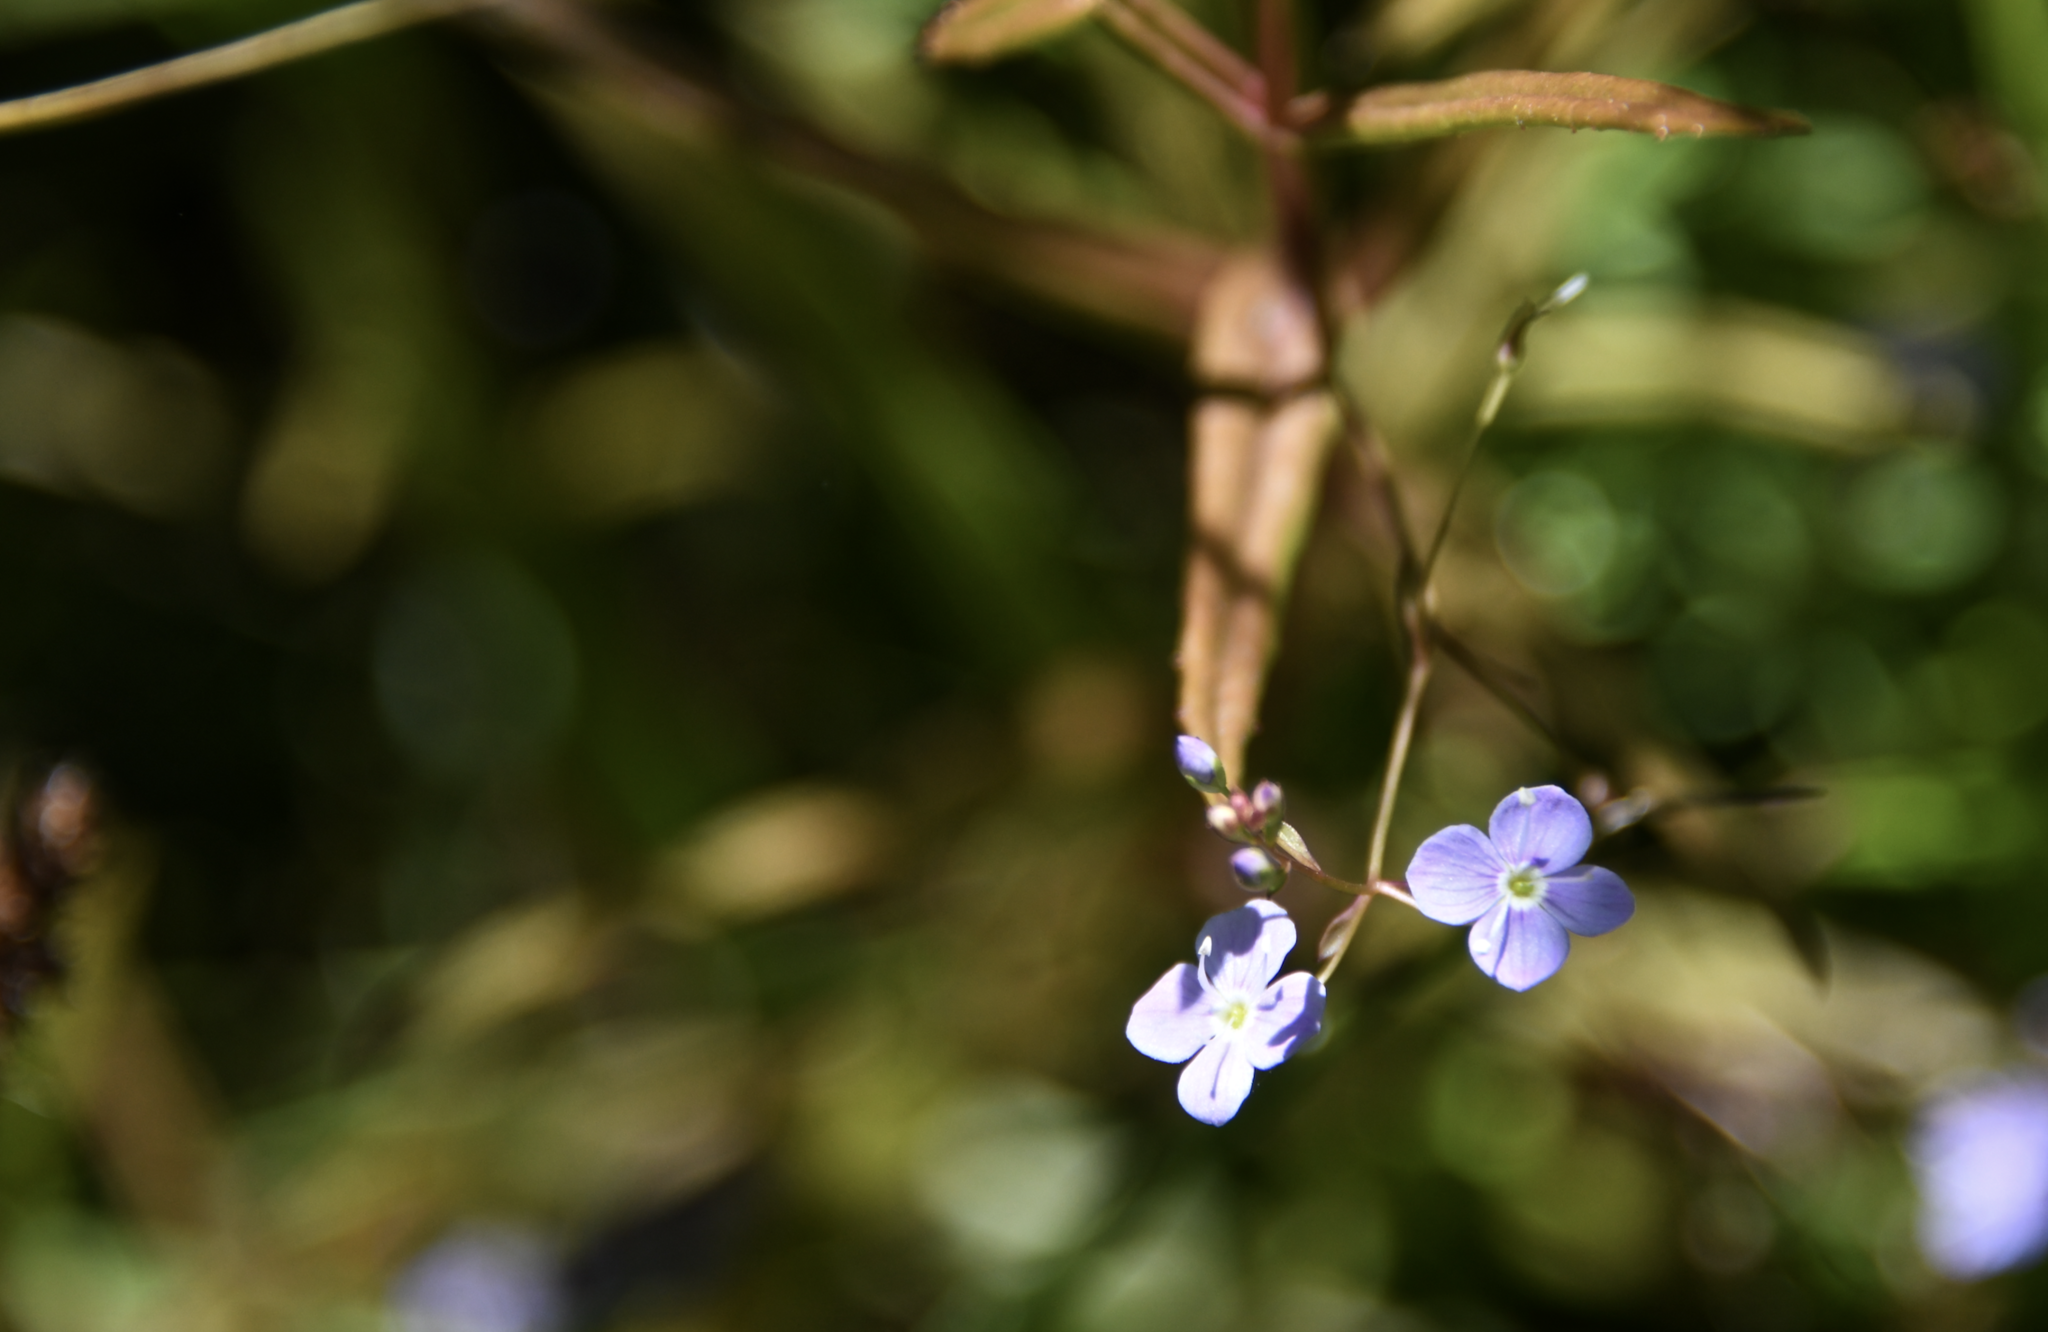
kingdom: Plantae
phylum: Tracheophyta
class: Magnoliopsida
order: Lamiales
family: Plantaginaceae
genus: Veronica
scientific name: Veronica scutellata
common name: Marsh speedwell
